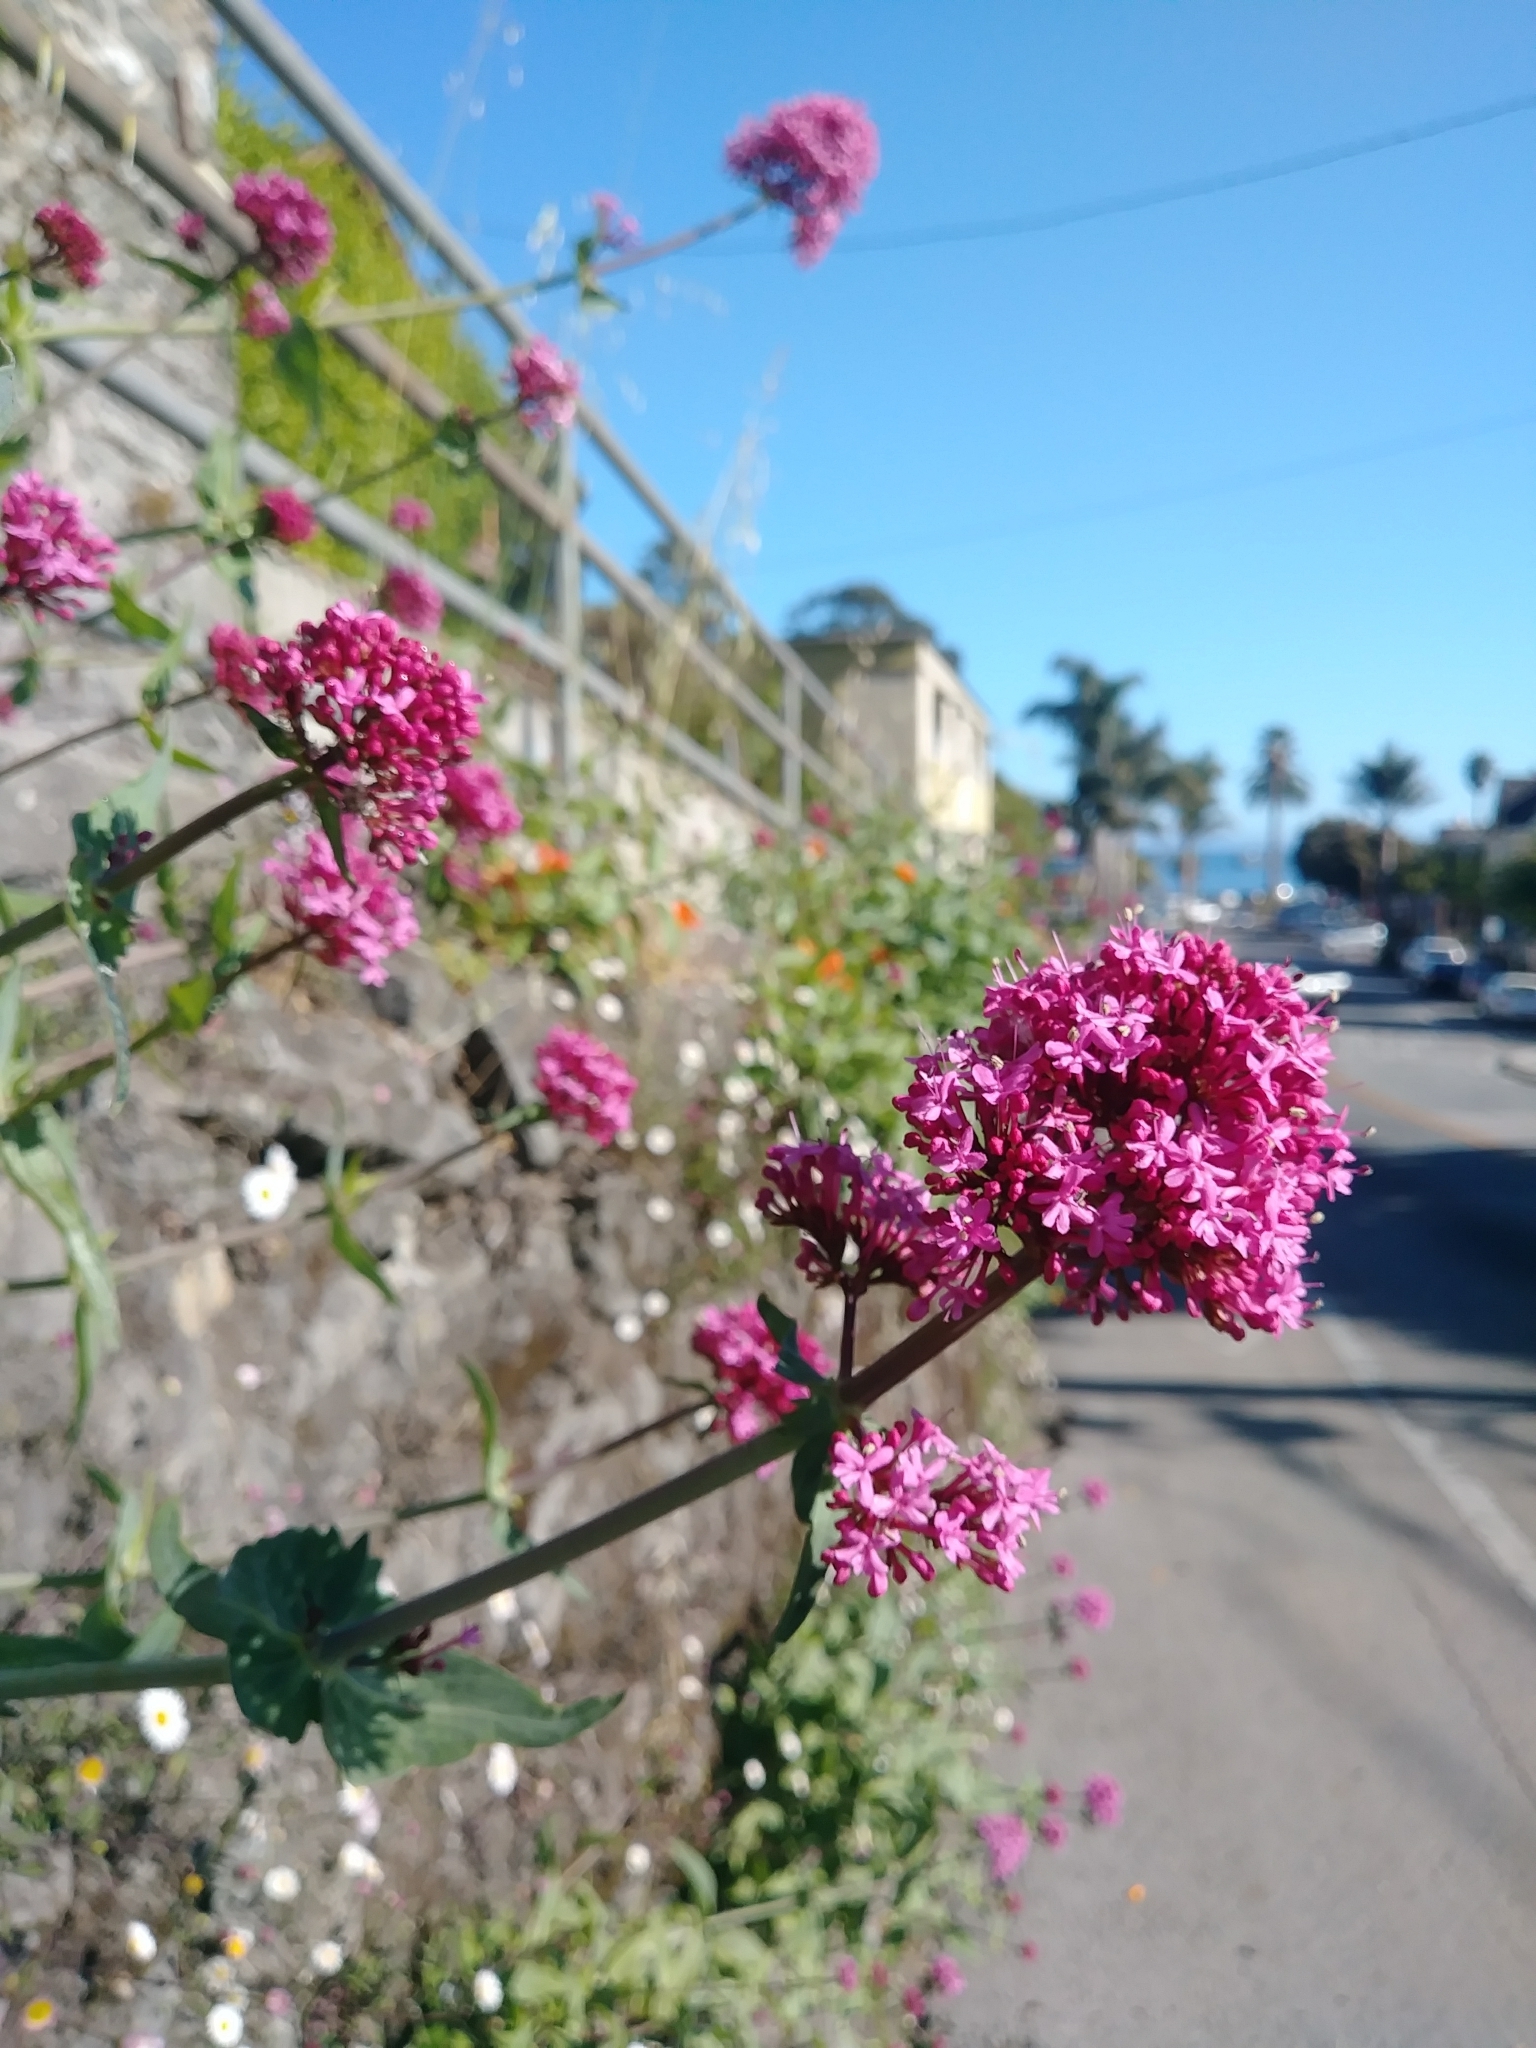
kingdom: Plantae
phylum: Tracheophyta
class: Magnoliopsida
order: Dipsacales
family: Caprifoliaceae
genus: Centranthus
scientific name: Centranthus ruber
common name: Red valerian
